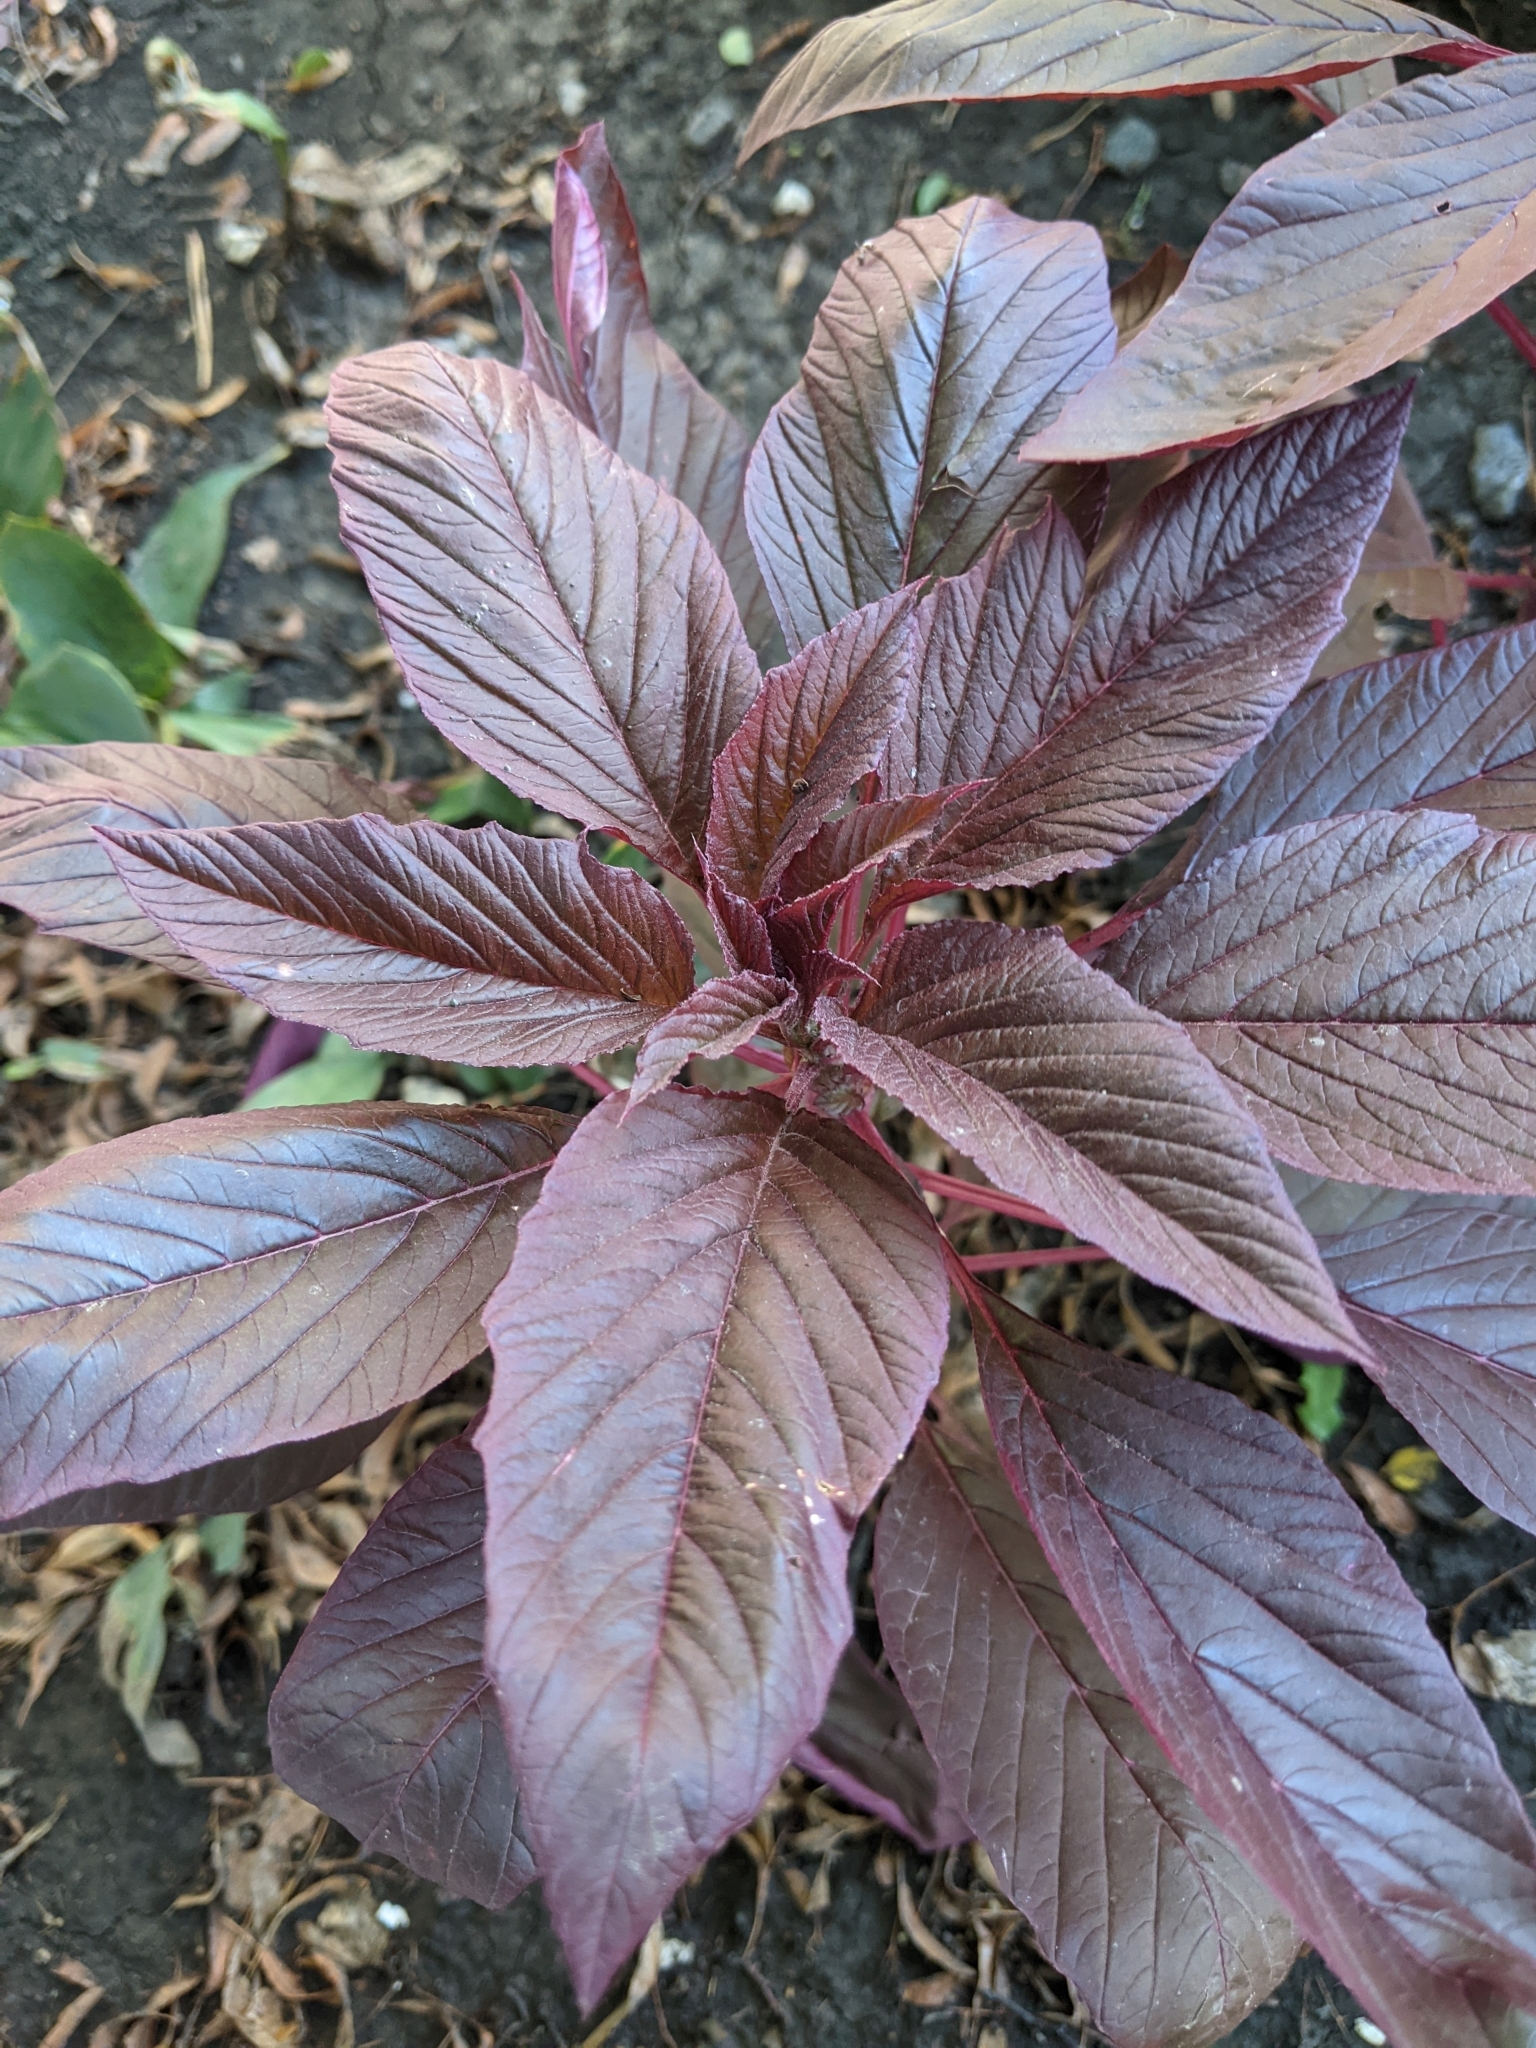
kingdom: Plantae
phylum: Tracheophyta
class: Magnoliopsida
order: Caryophyllales
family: Amaranthaceae
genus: Amaranthus
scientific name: Amaranthus cruentus
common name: Purple amaranth
